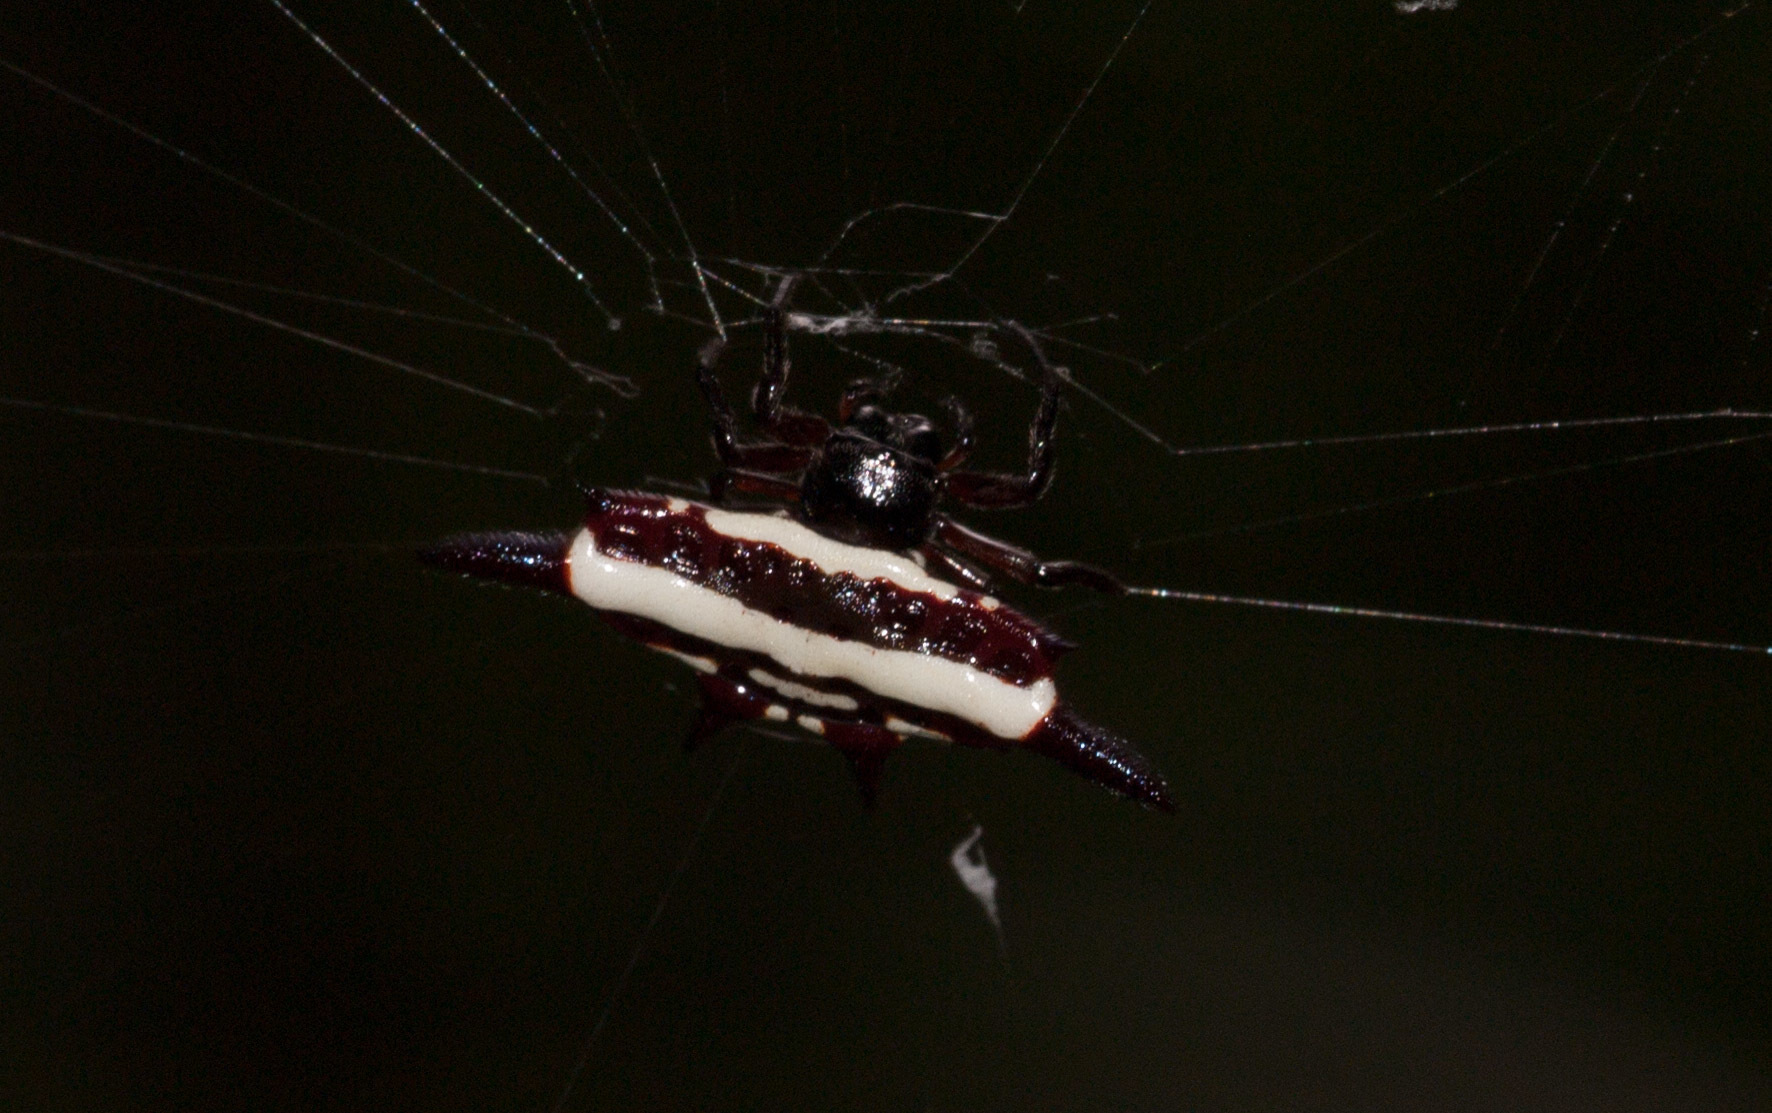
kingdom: Animalia
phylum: Arthropoda
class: Arachnida
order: Araneae
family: Araneidae
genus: Gasteracantha
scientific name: Gasteracantha fornicata
